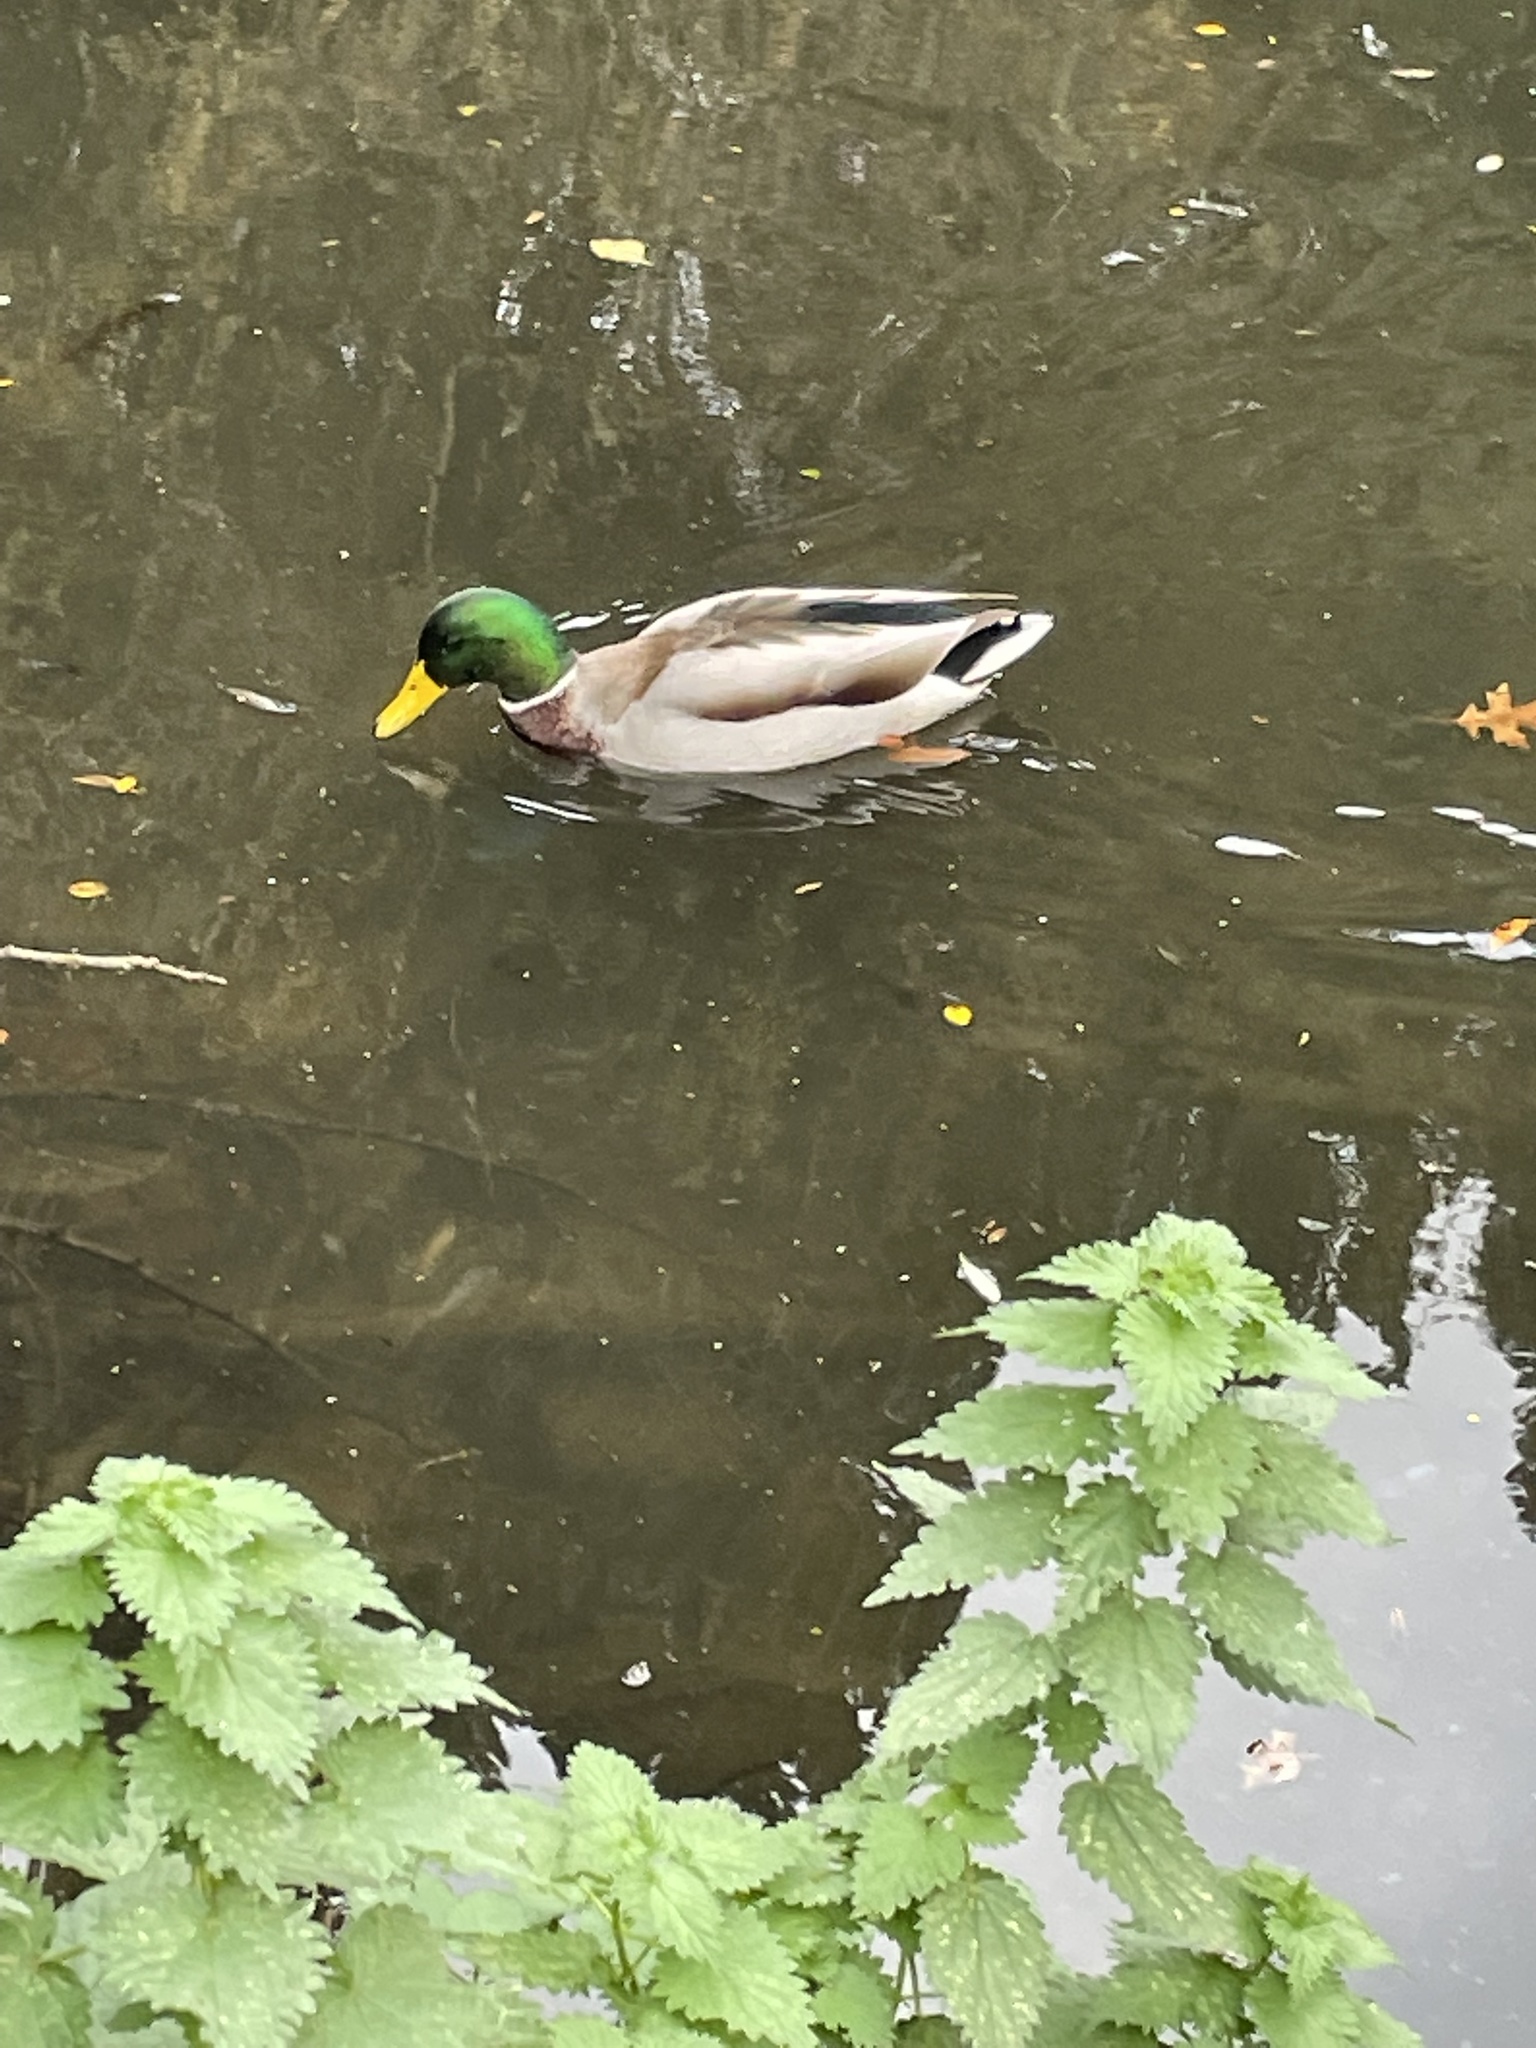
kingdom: Animalia
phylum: Chordata
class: Aves
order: Anseriformes
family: Anatidae
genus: Anas
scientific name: Anas platyrhynchos
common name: Mallard
